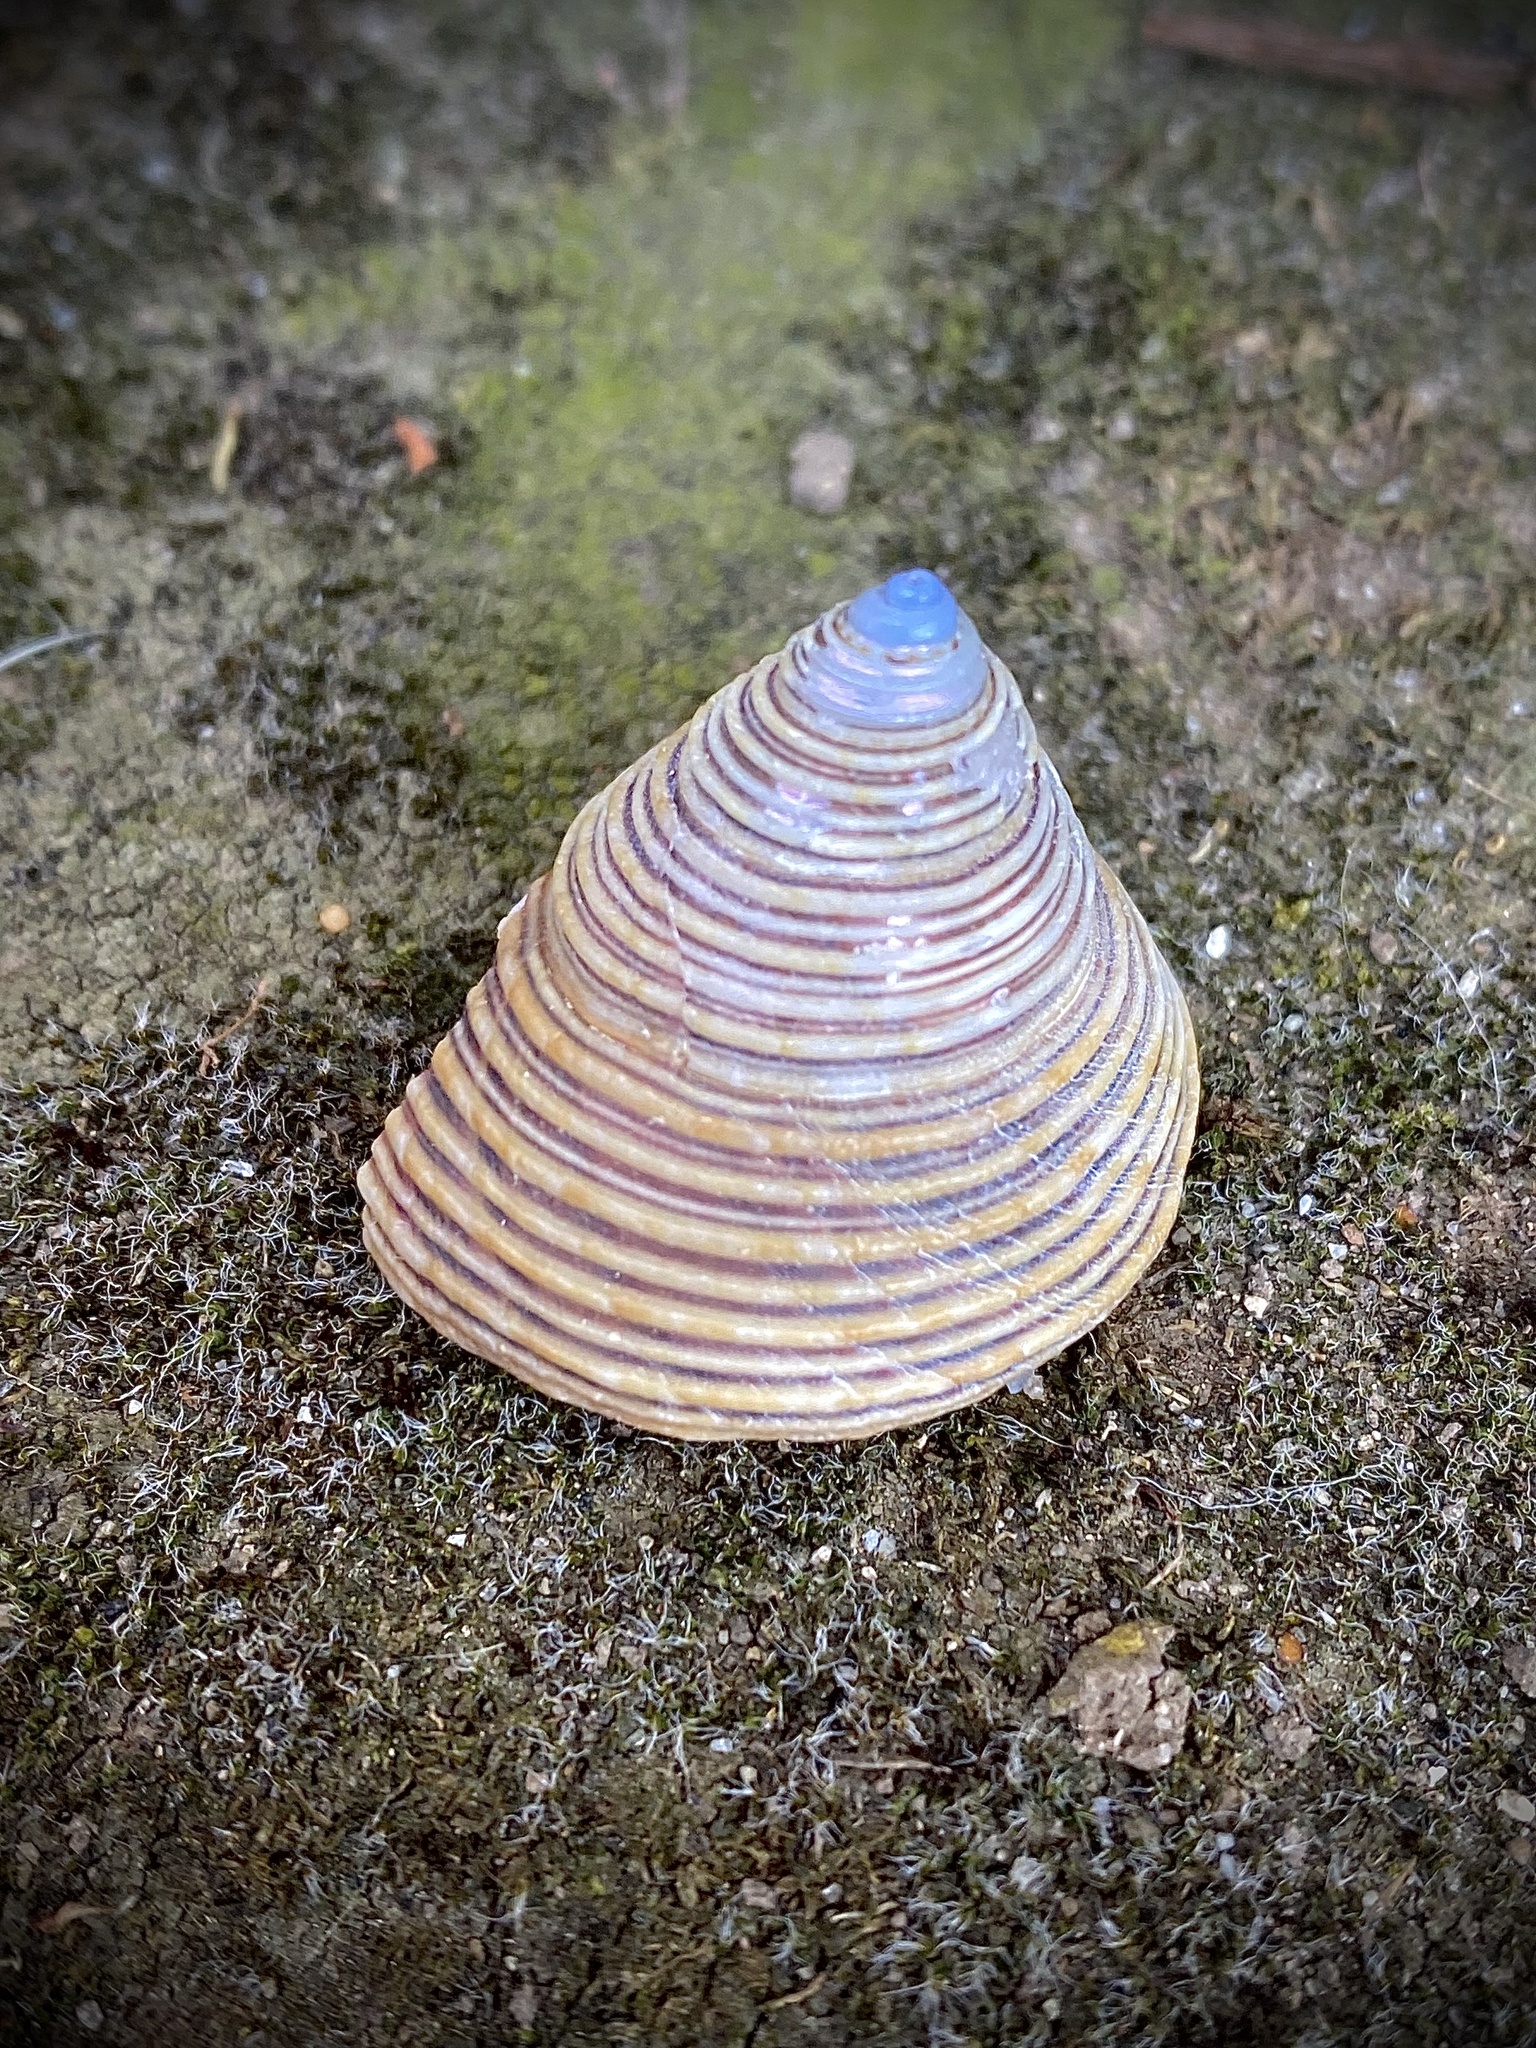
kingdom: Animalia
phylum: Mollusca
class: Gastropoda
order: Trochida
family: Calliostomatidae
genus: Calliostoma
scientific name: Calliostoma canaliculatum
